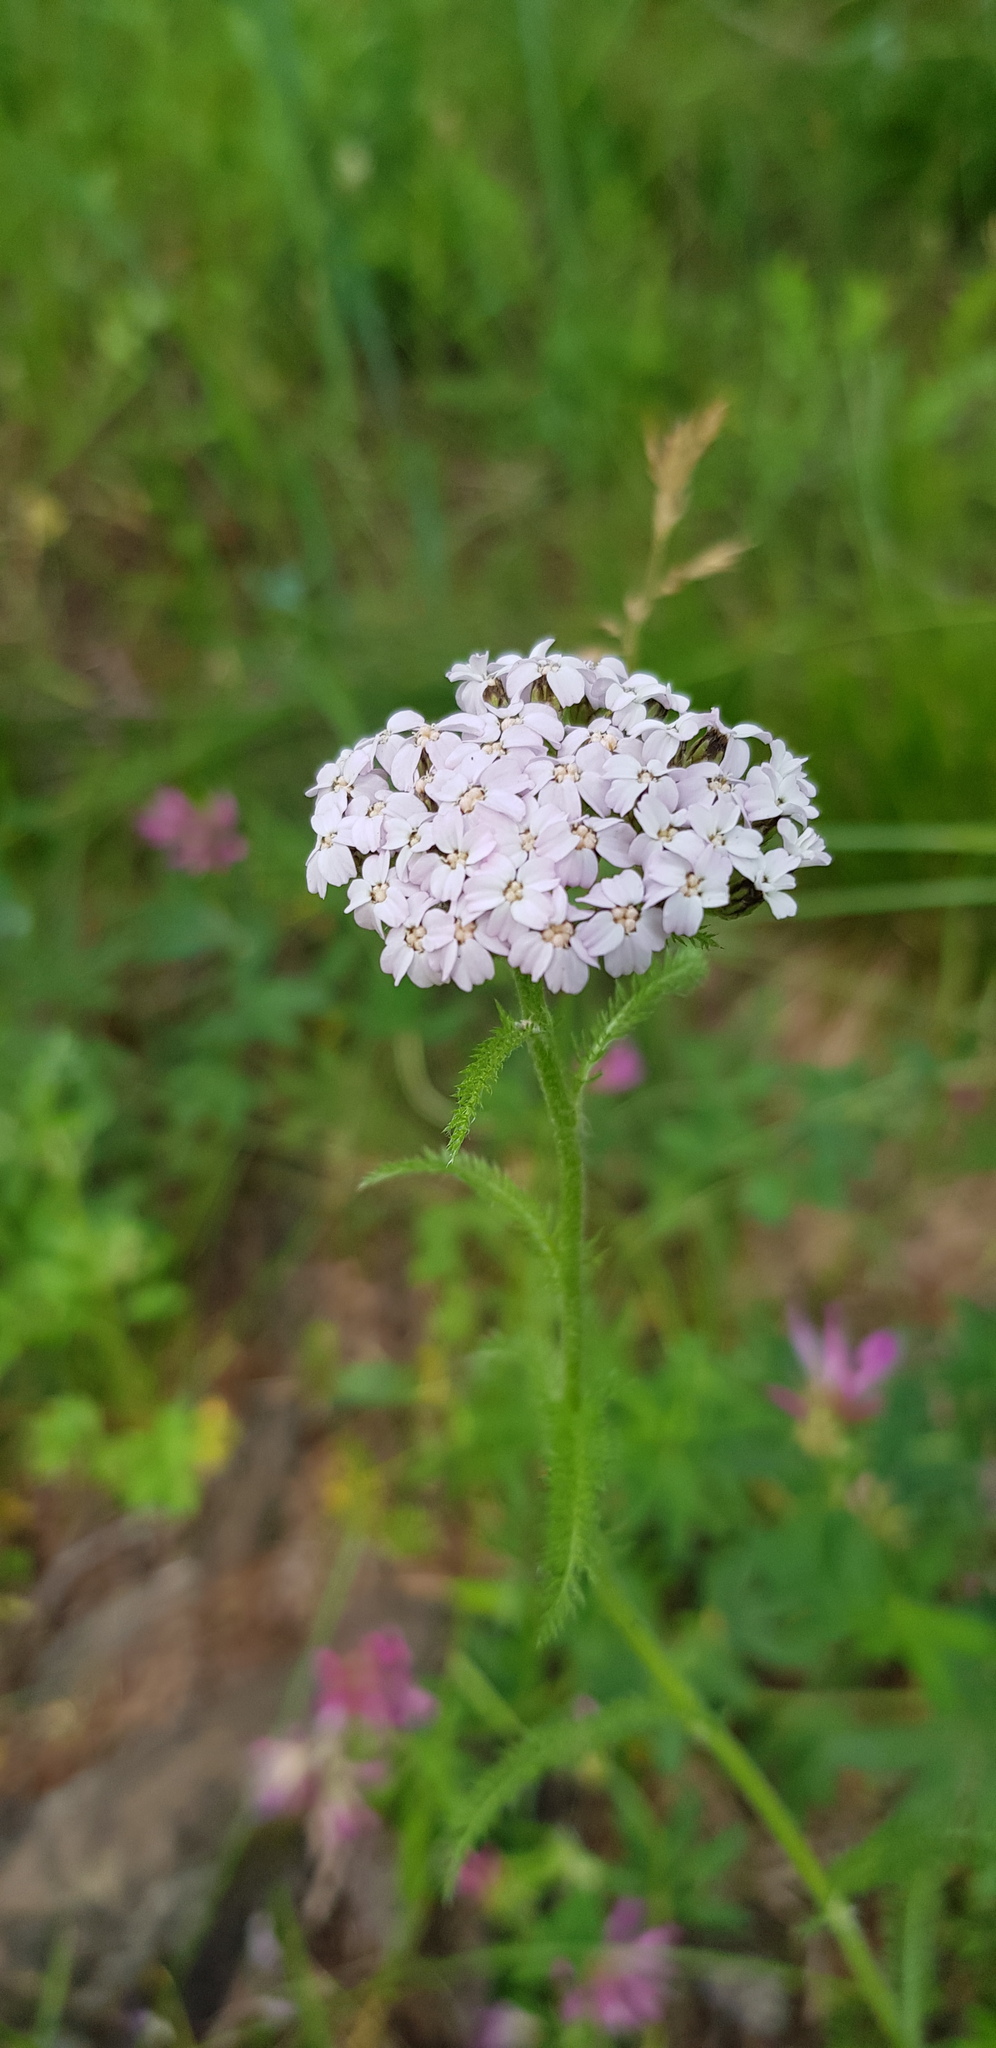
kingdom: Plantae
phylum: Tracheophyta
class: Magnoliopsida
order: Asterales
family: Asteraceae
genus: Achillea
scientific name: Achillea millefolium
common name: Yarrow
